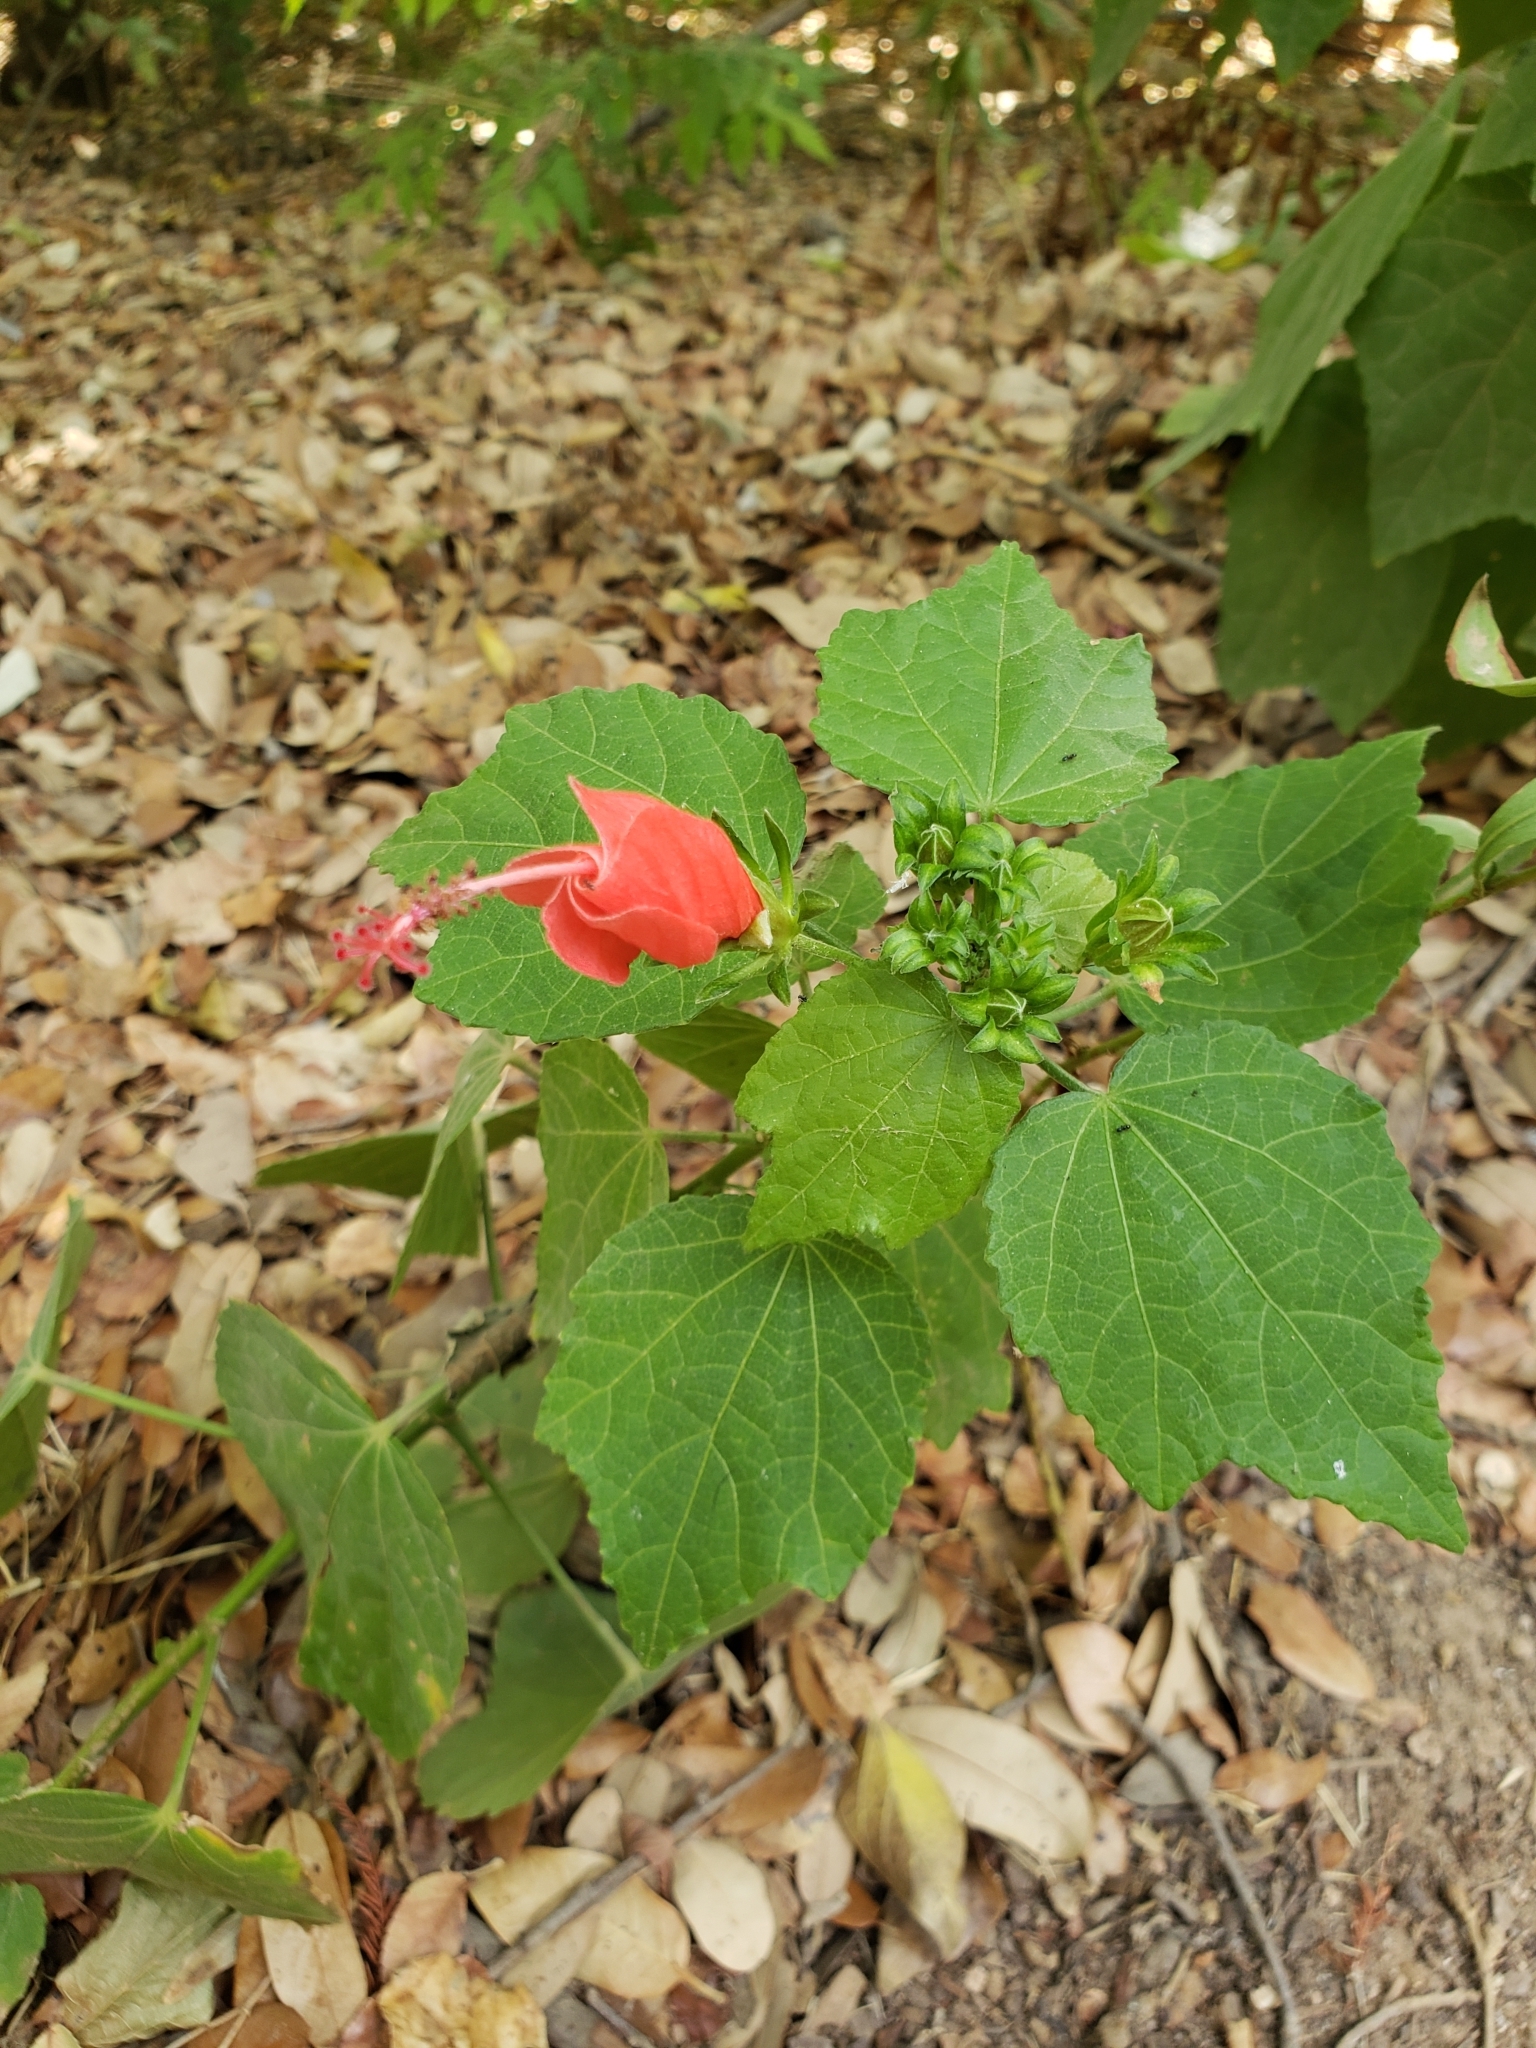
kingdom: Plantae
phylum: Tracheophyta
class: Magnoliopsida
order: Malvales
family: Malvaceae
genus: Malvaviscus
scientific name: Malvaviscus arboreus
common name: Wax mallow
